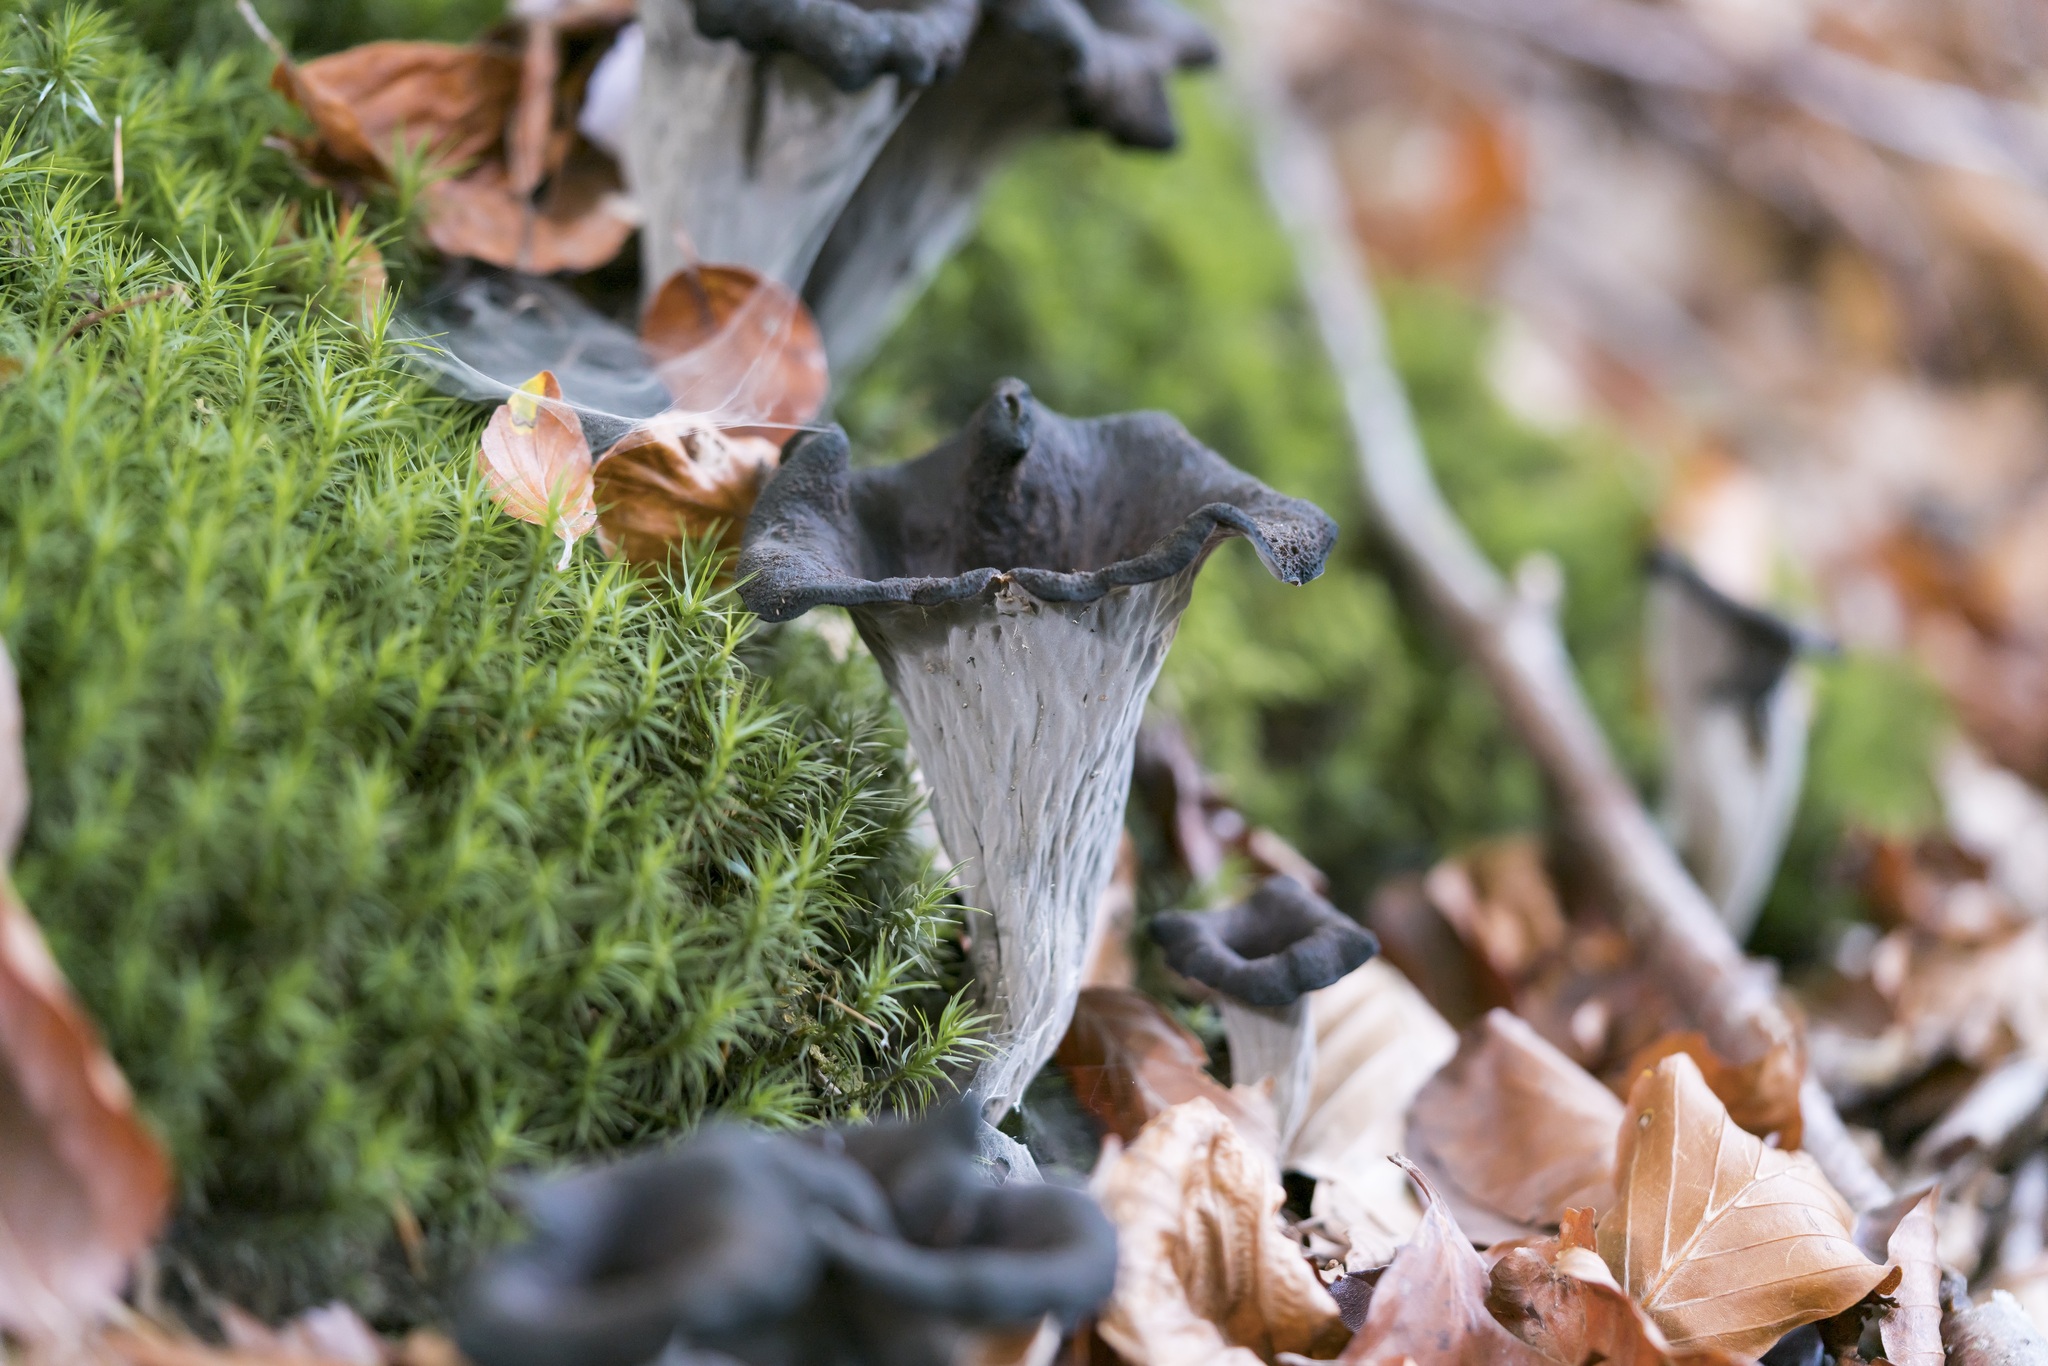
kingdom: Fungi
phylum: Basidiomycota
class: Agaricomycetes
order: Cantharellales
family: Hydnaceae
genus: Craterellus
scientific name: Craterellus cornucopioides
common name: Horn of plenty
